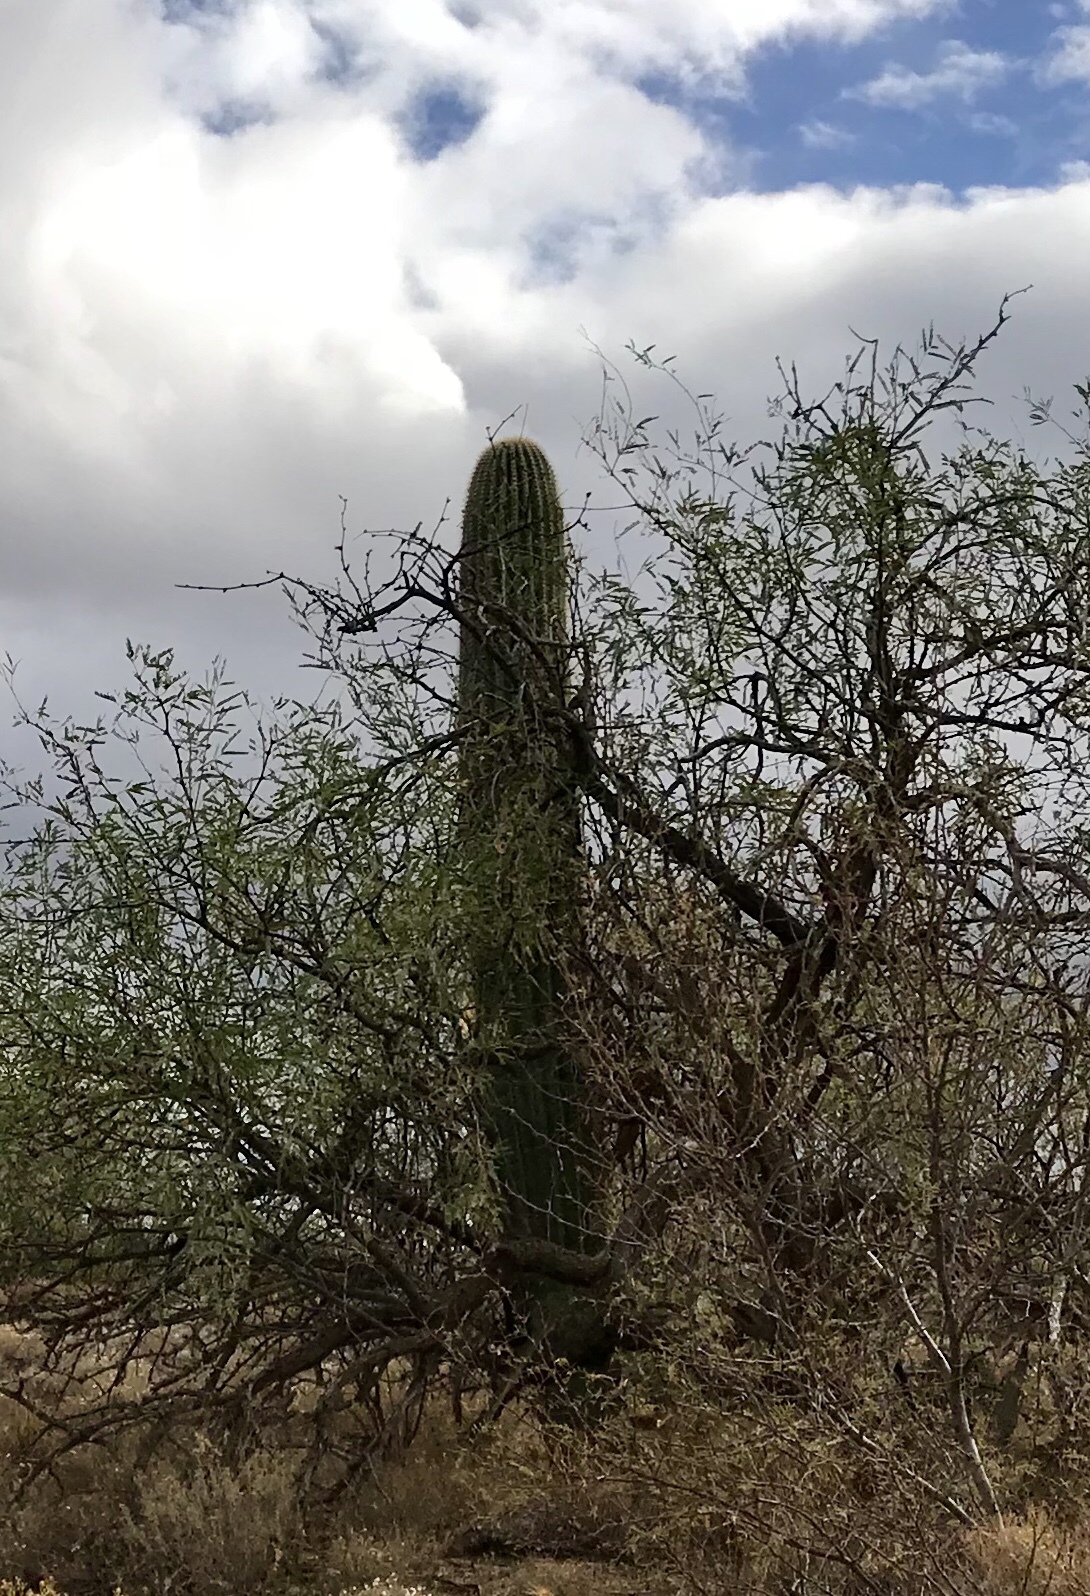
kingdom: Plantae
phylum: Tracheophyta
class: Magnoliopsida
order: Fabales
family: Fabaceae
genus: Prosopis
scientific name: Prosopis velutina
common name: Velvet mesquite
